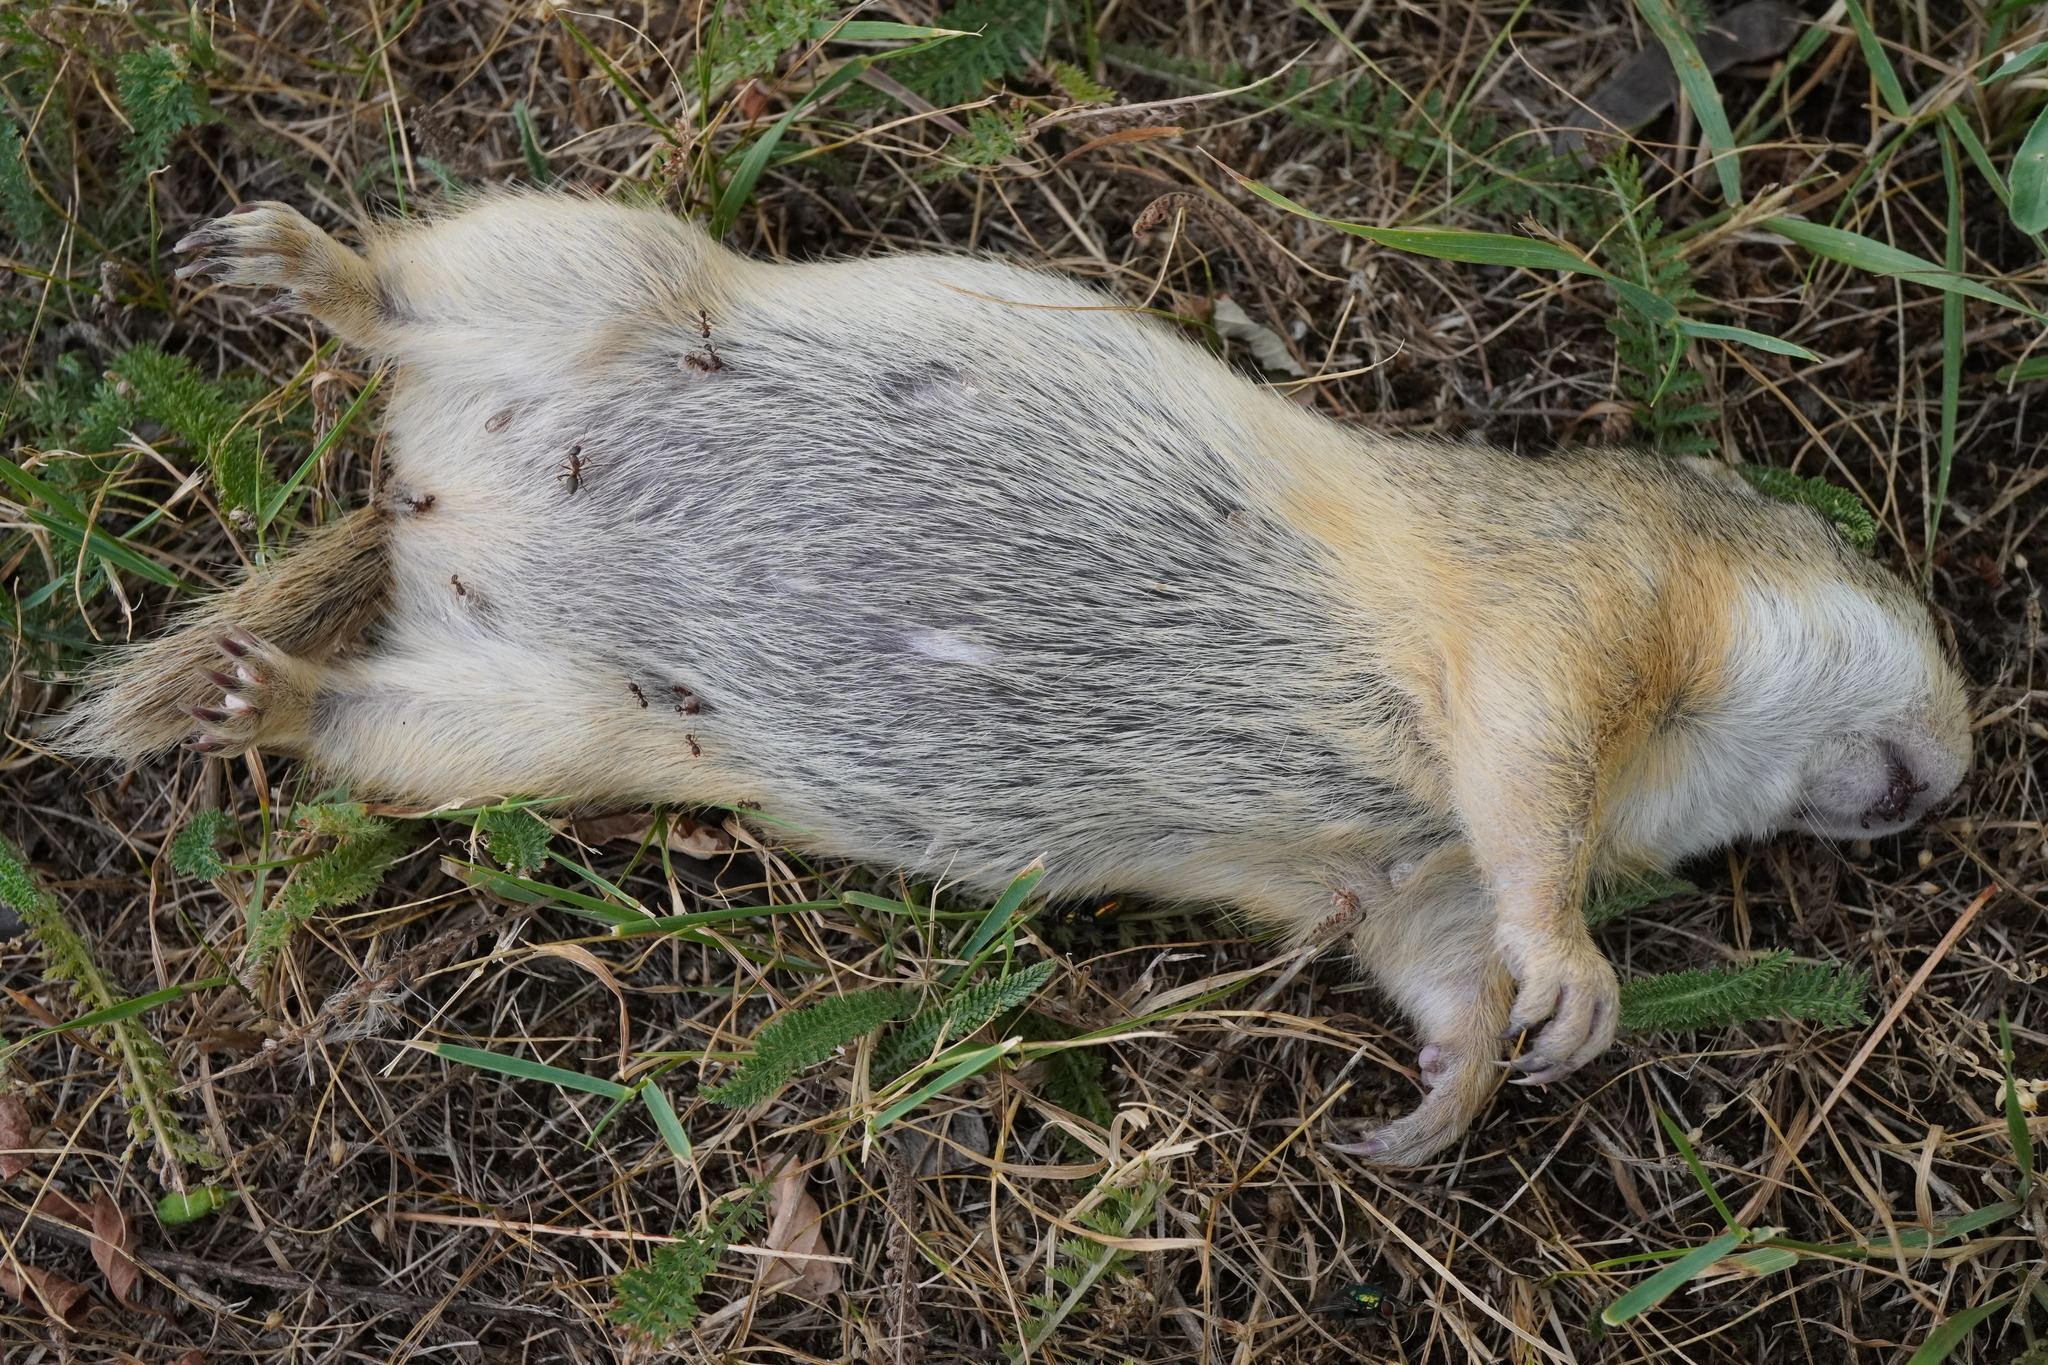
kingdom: Animalia
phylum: Chordata
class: Mammalia
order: Rodentia
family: Sciuridae
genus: Spermophilus
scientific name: Spermophilus citellus
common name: European ground squirrel
